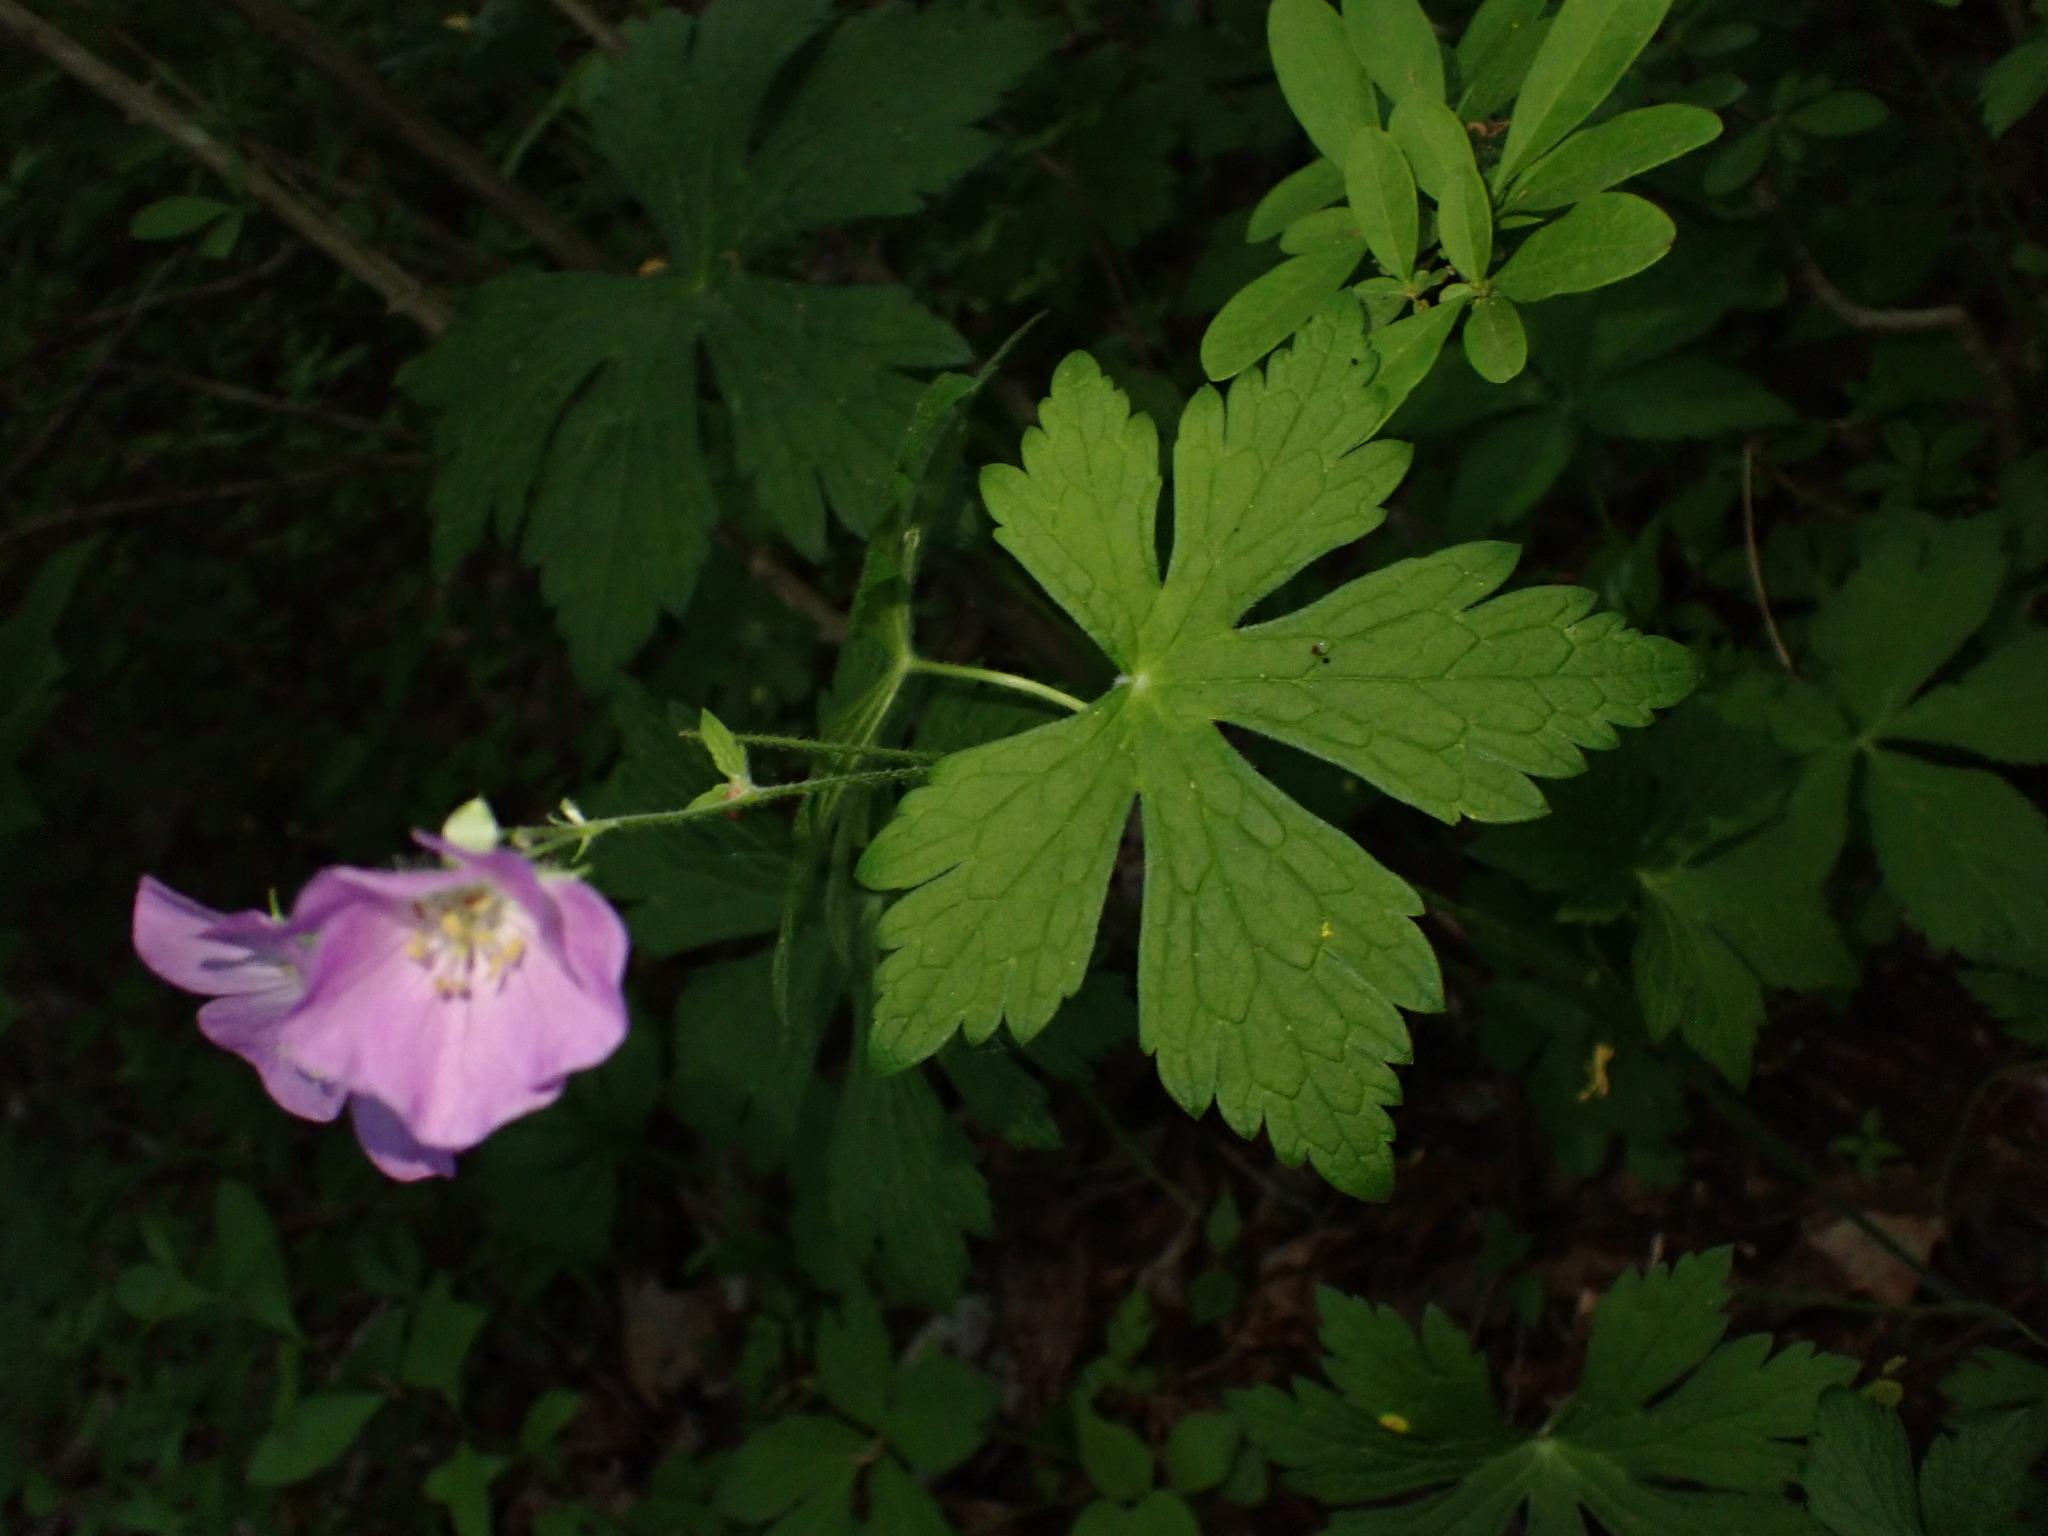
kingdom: Plantae
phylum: Tracheophyta
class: Magnoliopsida
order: Geraniales
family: Geraniaceae
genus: Geranium
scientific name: Geranium maculatum
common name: Spotted geranium
